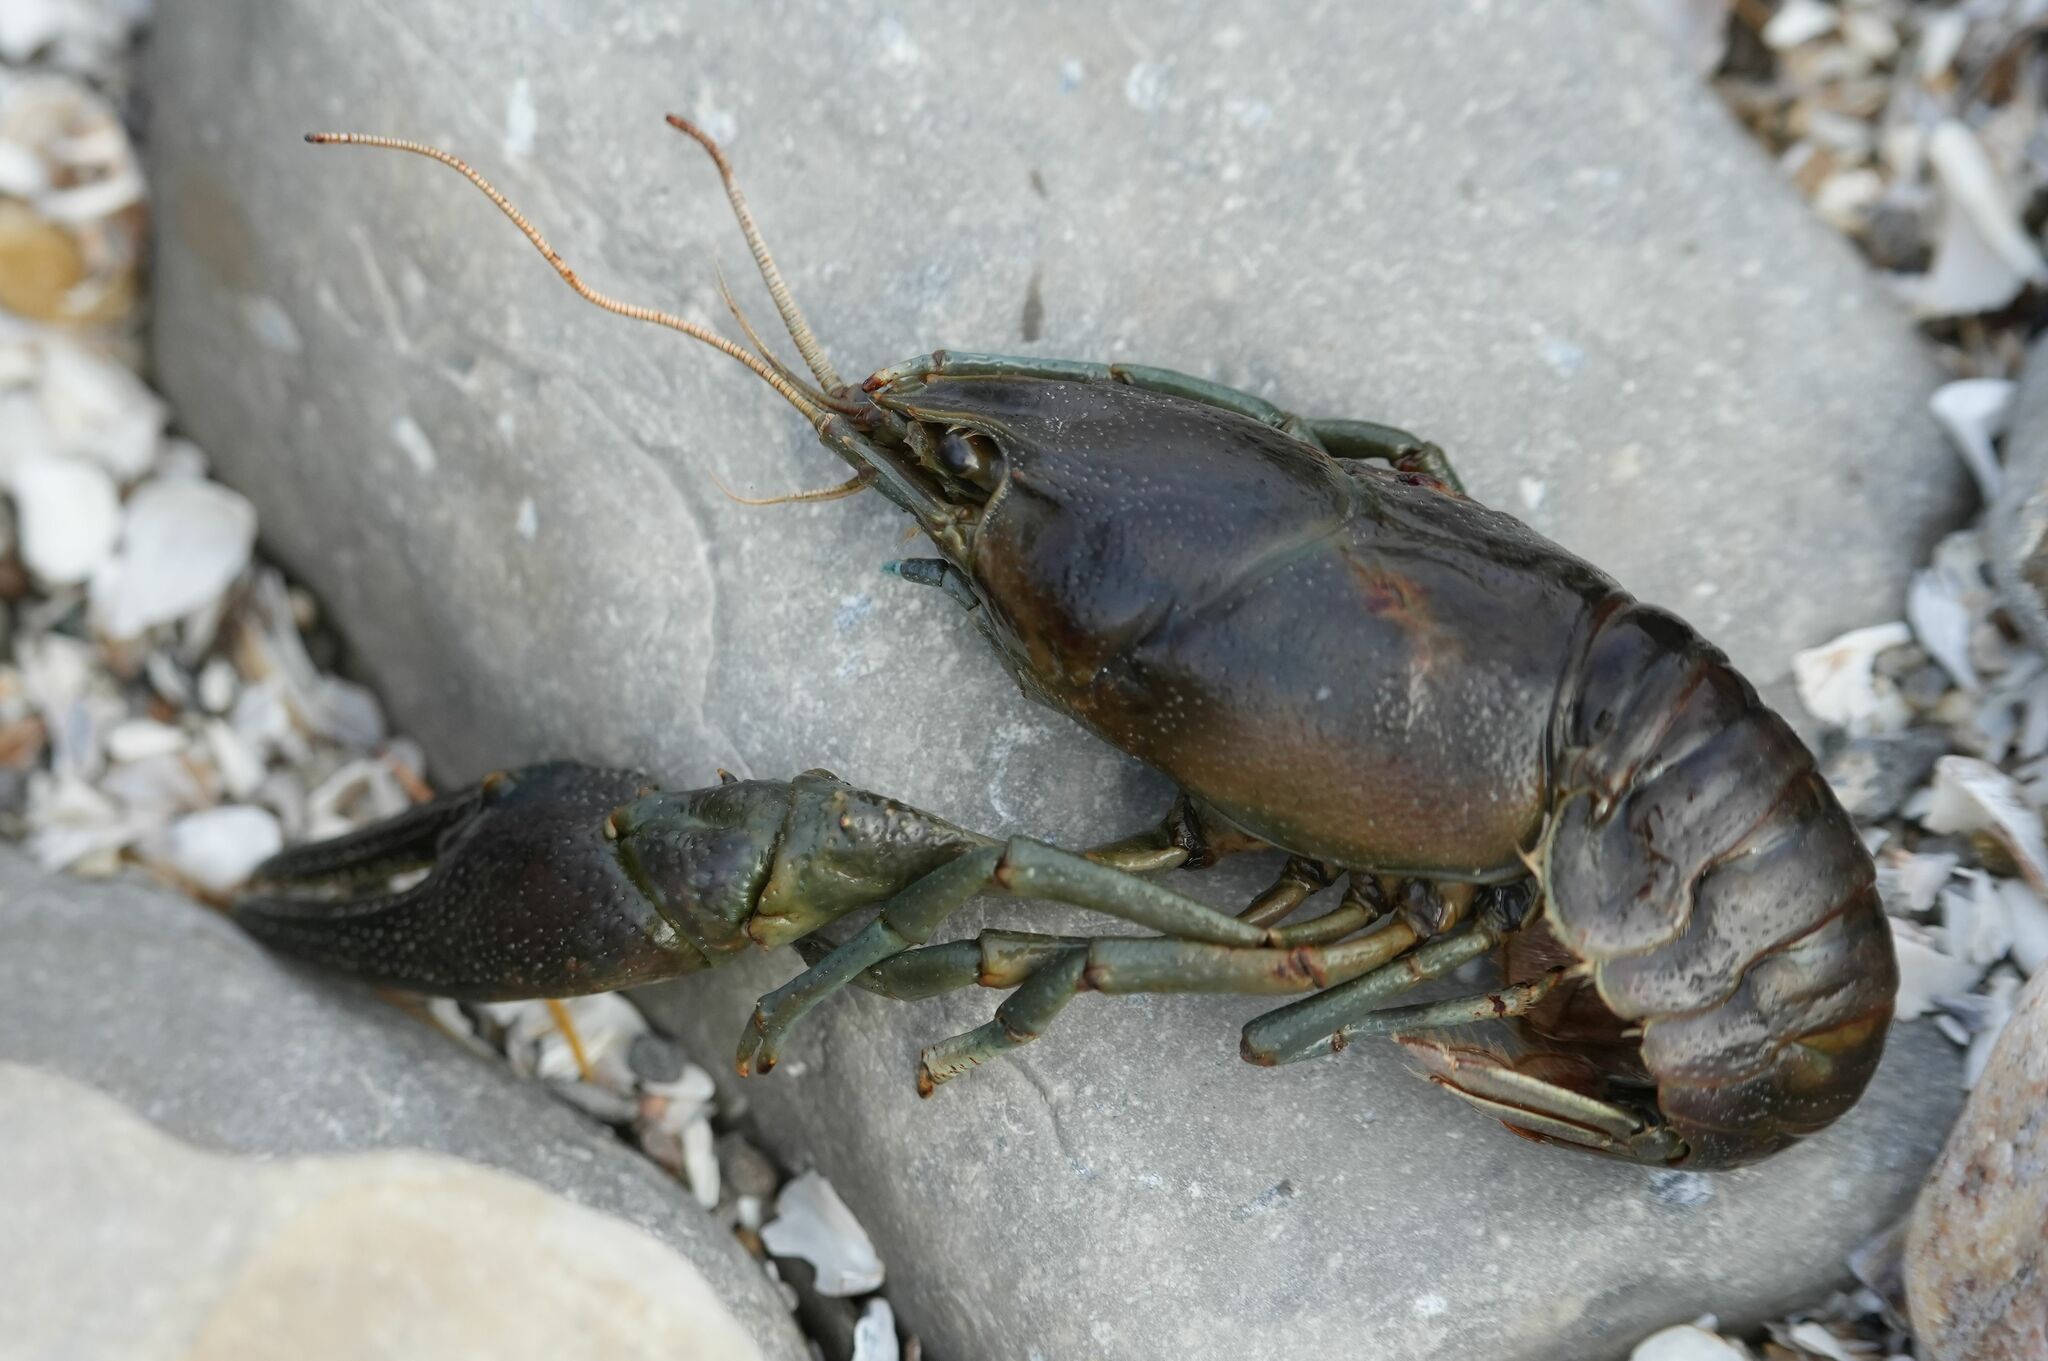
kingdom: Animalia
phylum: Arthropoda
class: Malacostraca
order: Decapoda
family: Cambaridae
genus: Faxonius
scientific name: Faxonius rusticus
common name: Rusty crayfish
